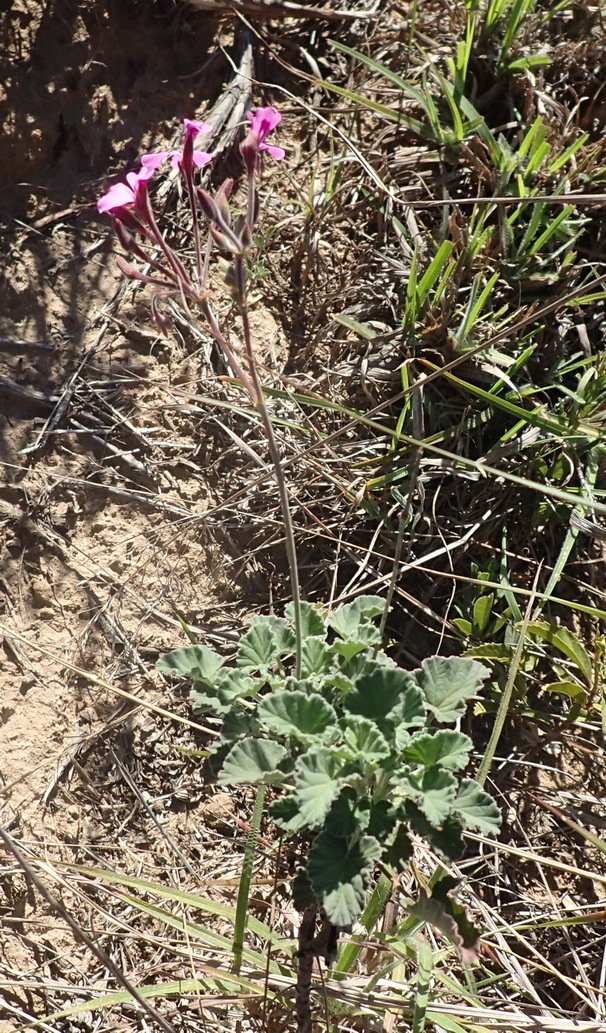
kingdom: Plantae
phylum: Tracheophyta
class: Magnoliopsida
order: Geraniales
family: Geraniaceae
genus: Pelargonium
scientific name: Pelargonium reniforme
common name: Kidney-leaf pelargonium
